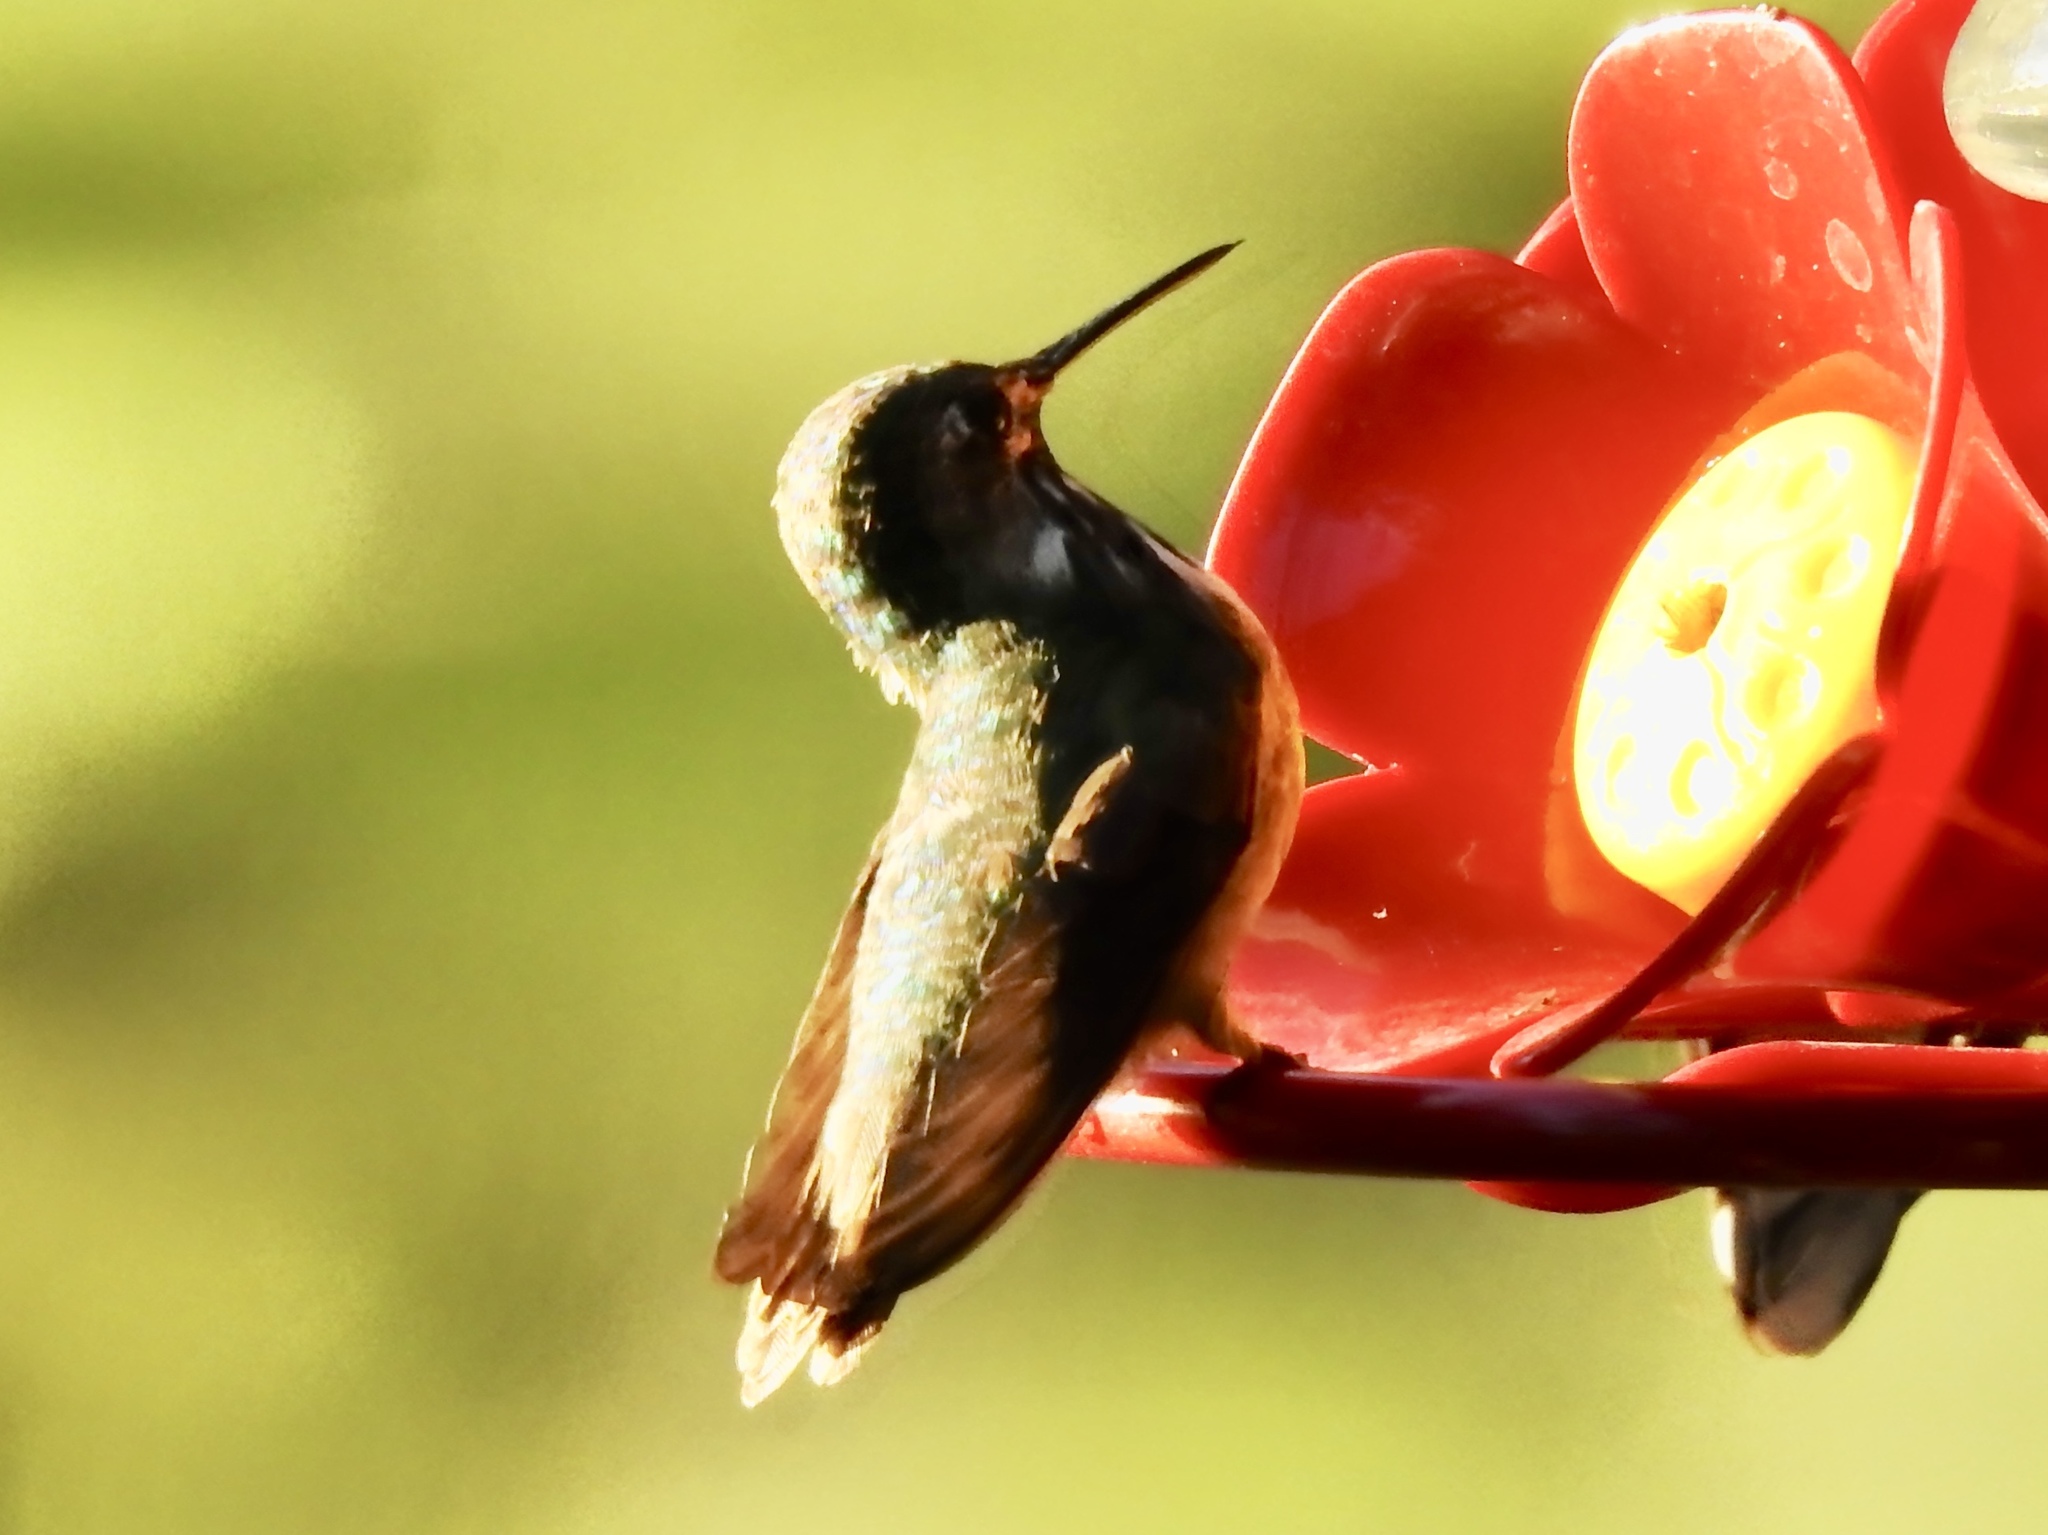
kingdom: Animalia
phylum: Chordata
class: Aves
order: Apodiformes
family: Trochilidae
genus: Selasphorus
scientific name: Selasphorus calliope
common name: Calliope hummingbird
